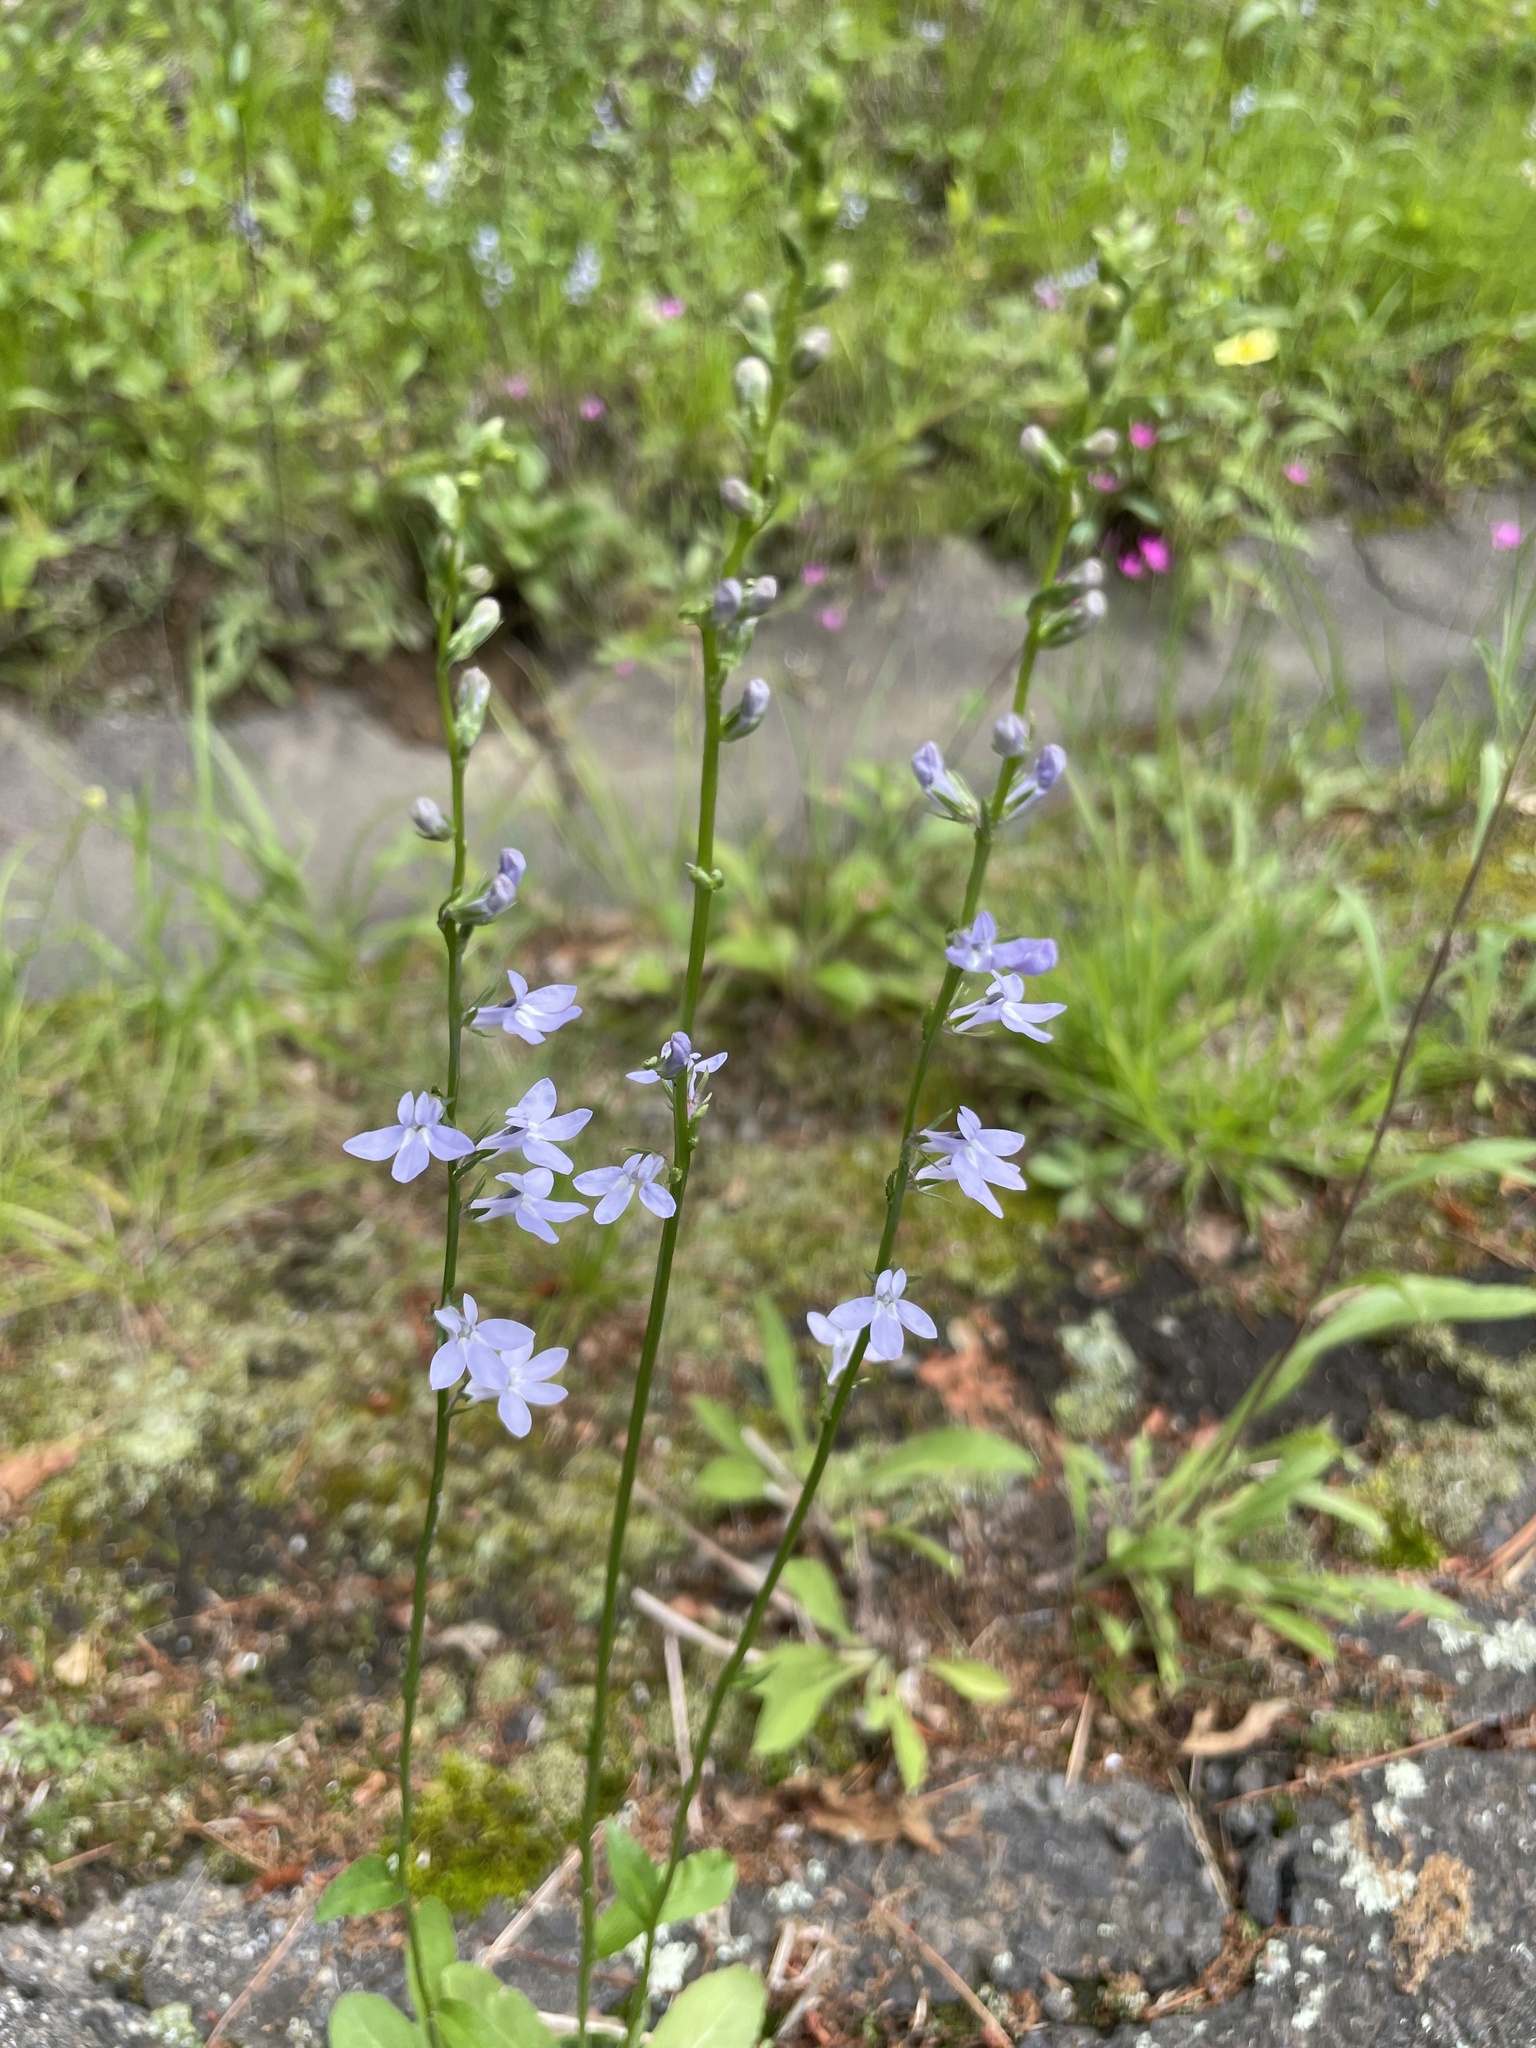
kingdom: Plantae
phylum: Tracheophyta
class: Magnoliopsida
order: Asterales
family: Campanulaceae
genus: Lobelia
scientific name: Lobelia spicata
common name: Pale-spike lobelia
